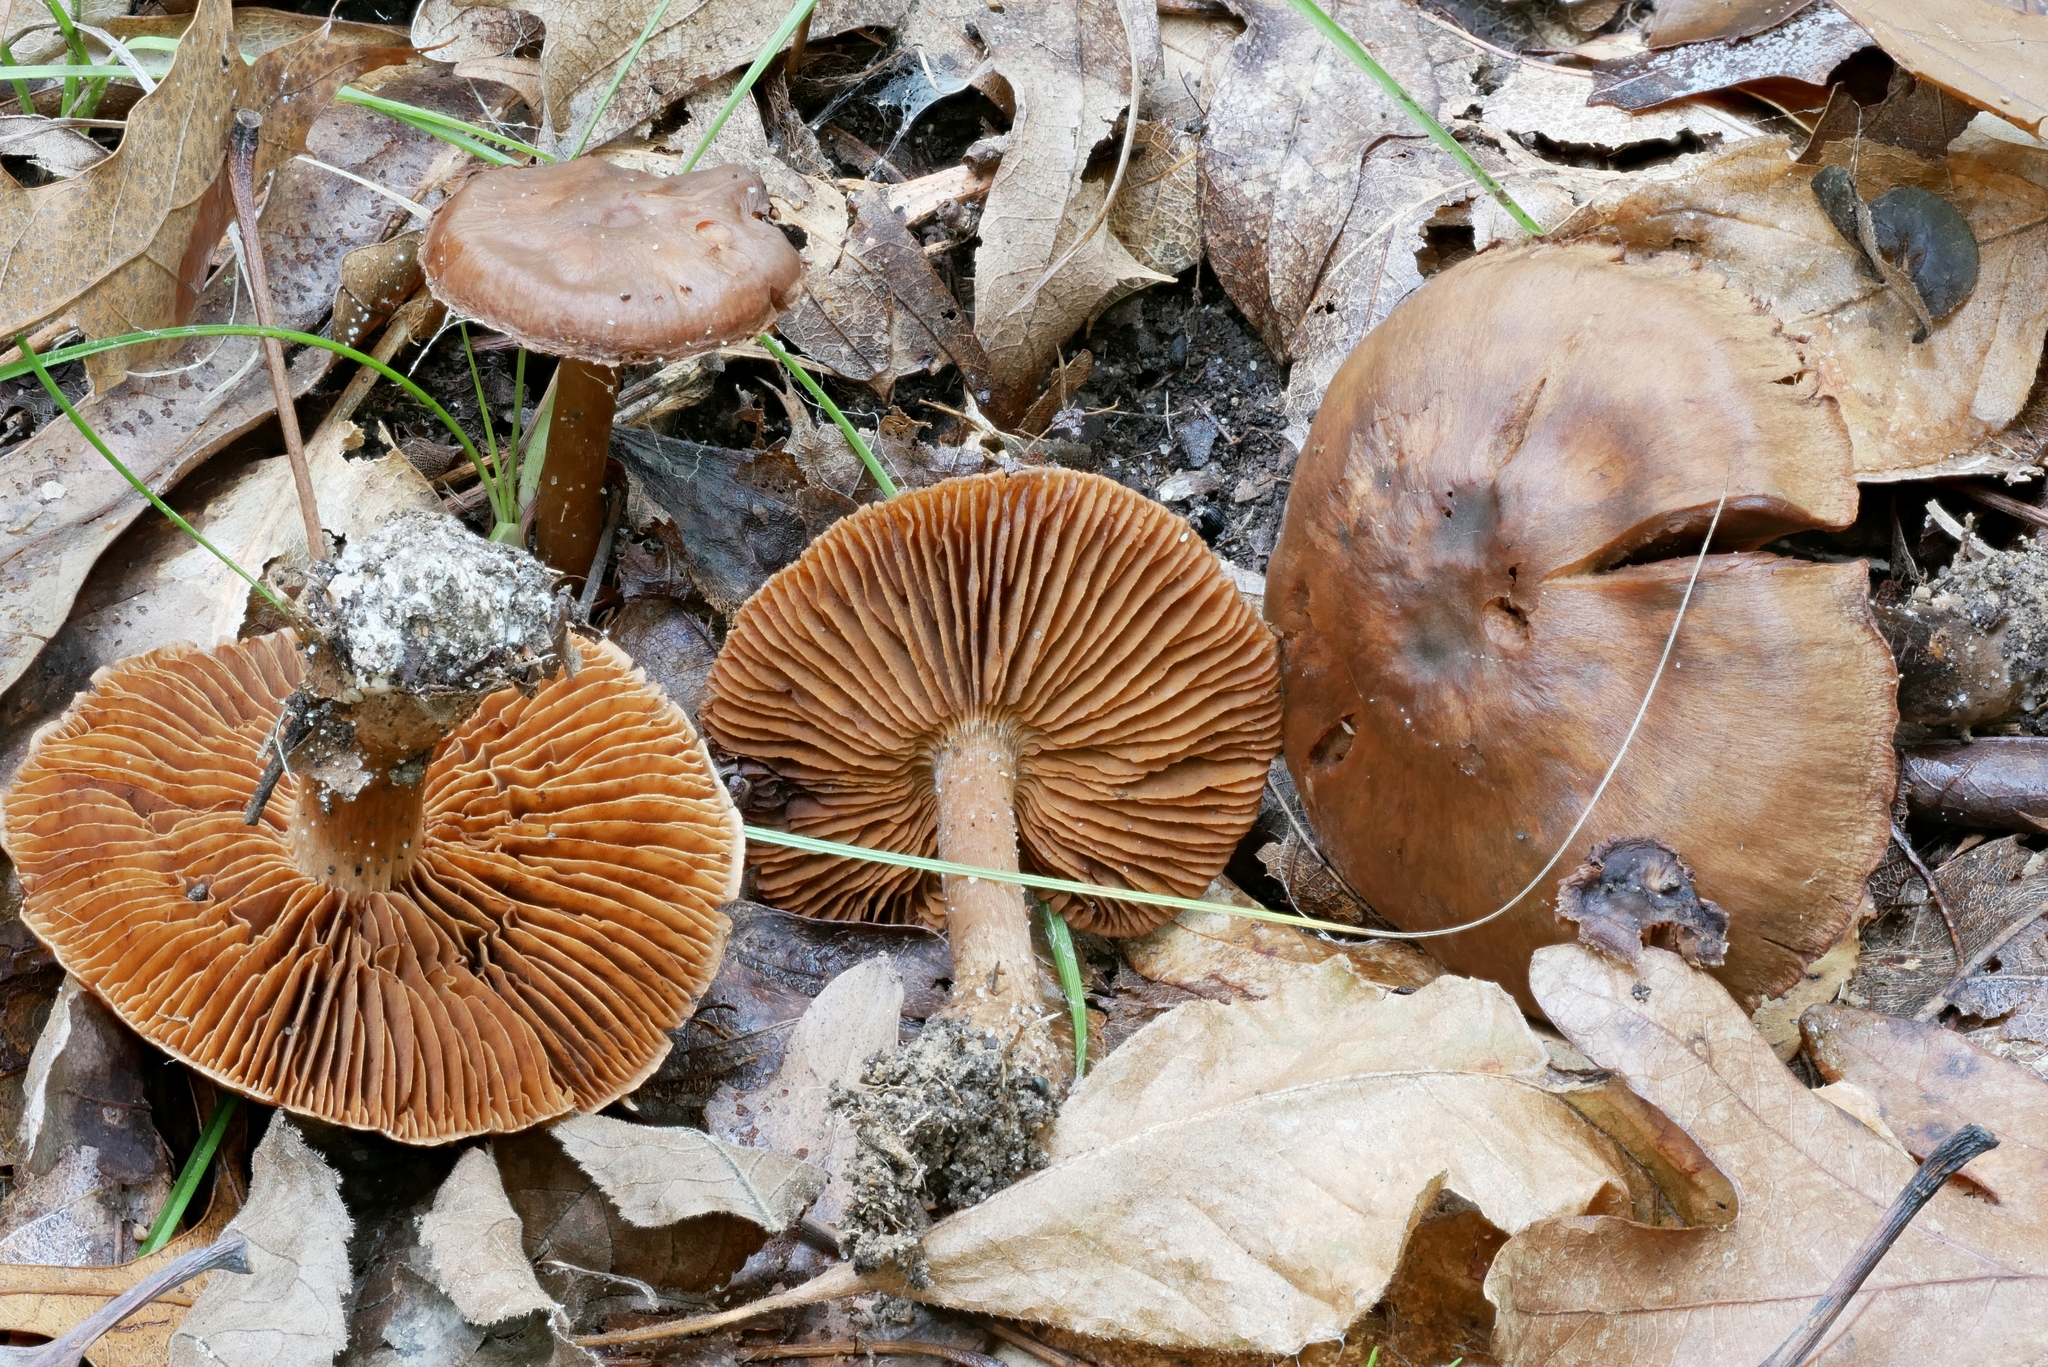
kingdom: Fungi
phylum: Basidiomycota
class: Agaricomycetes
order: Agaricales
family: Cortinariaceae
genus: Cortinarius
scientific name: Cortinarius duracinellus
